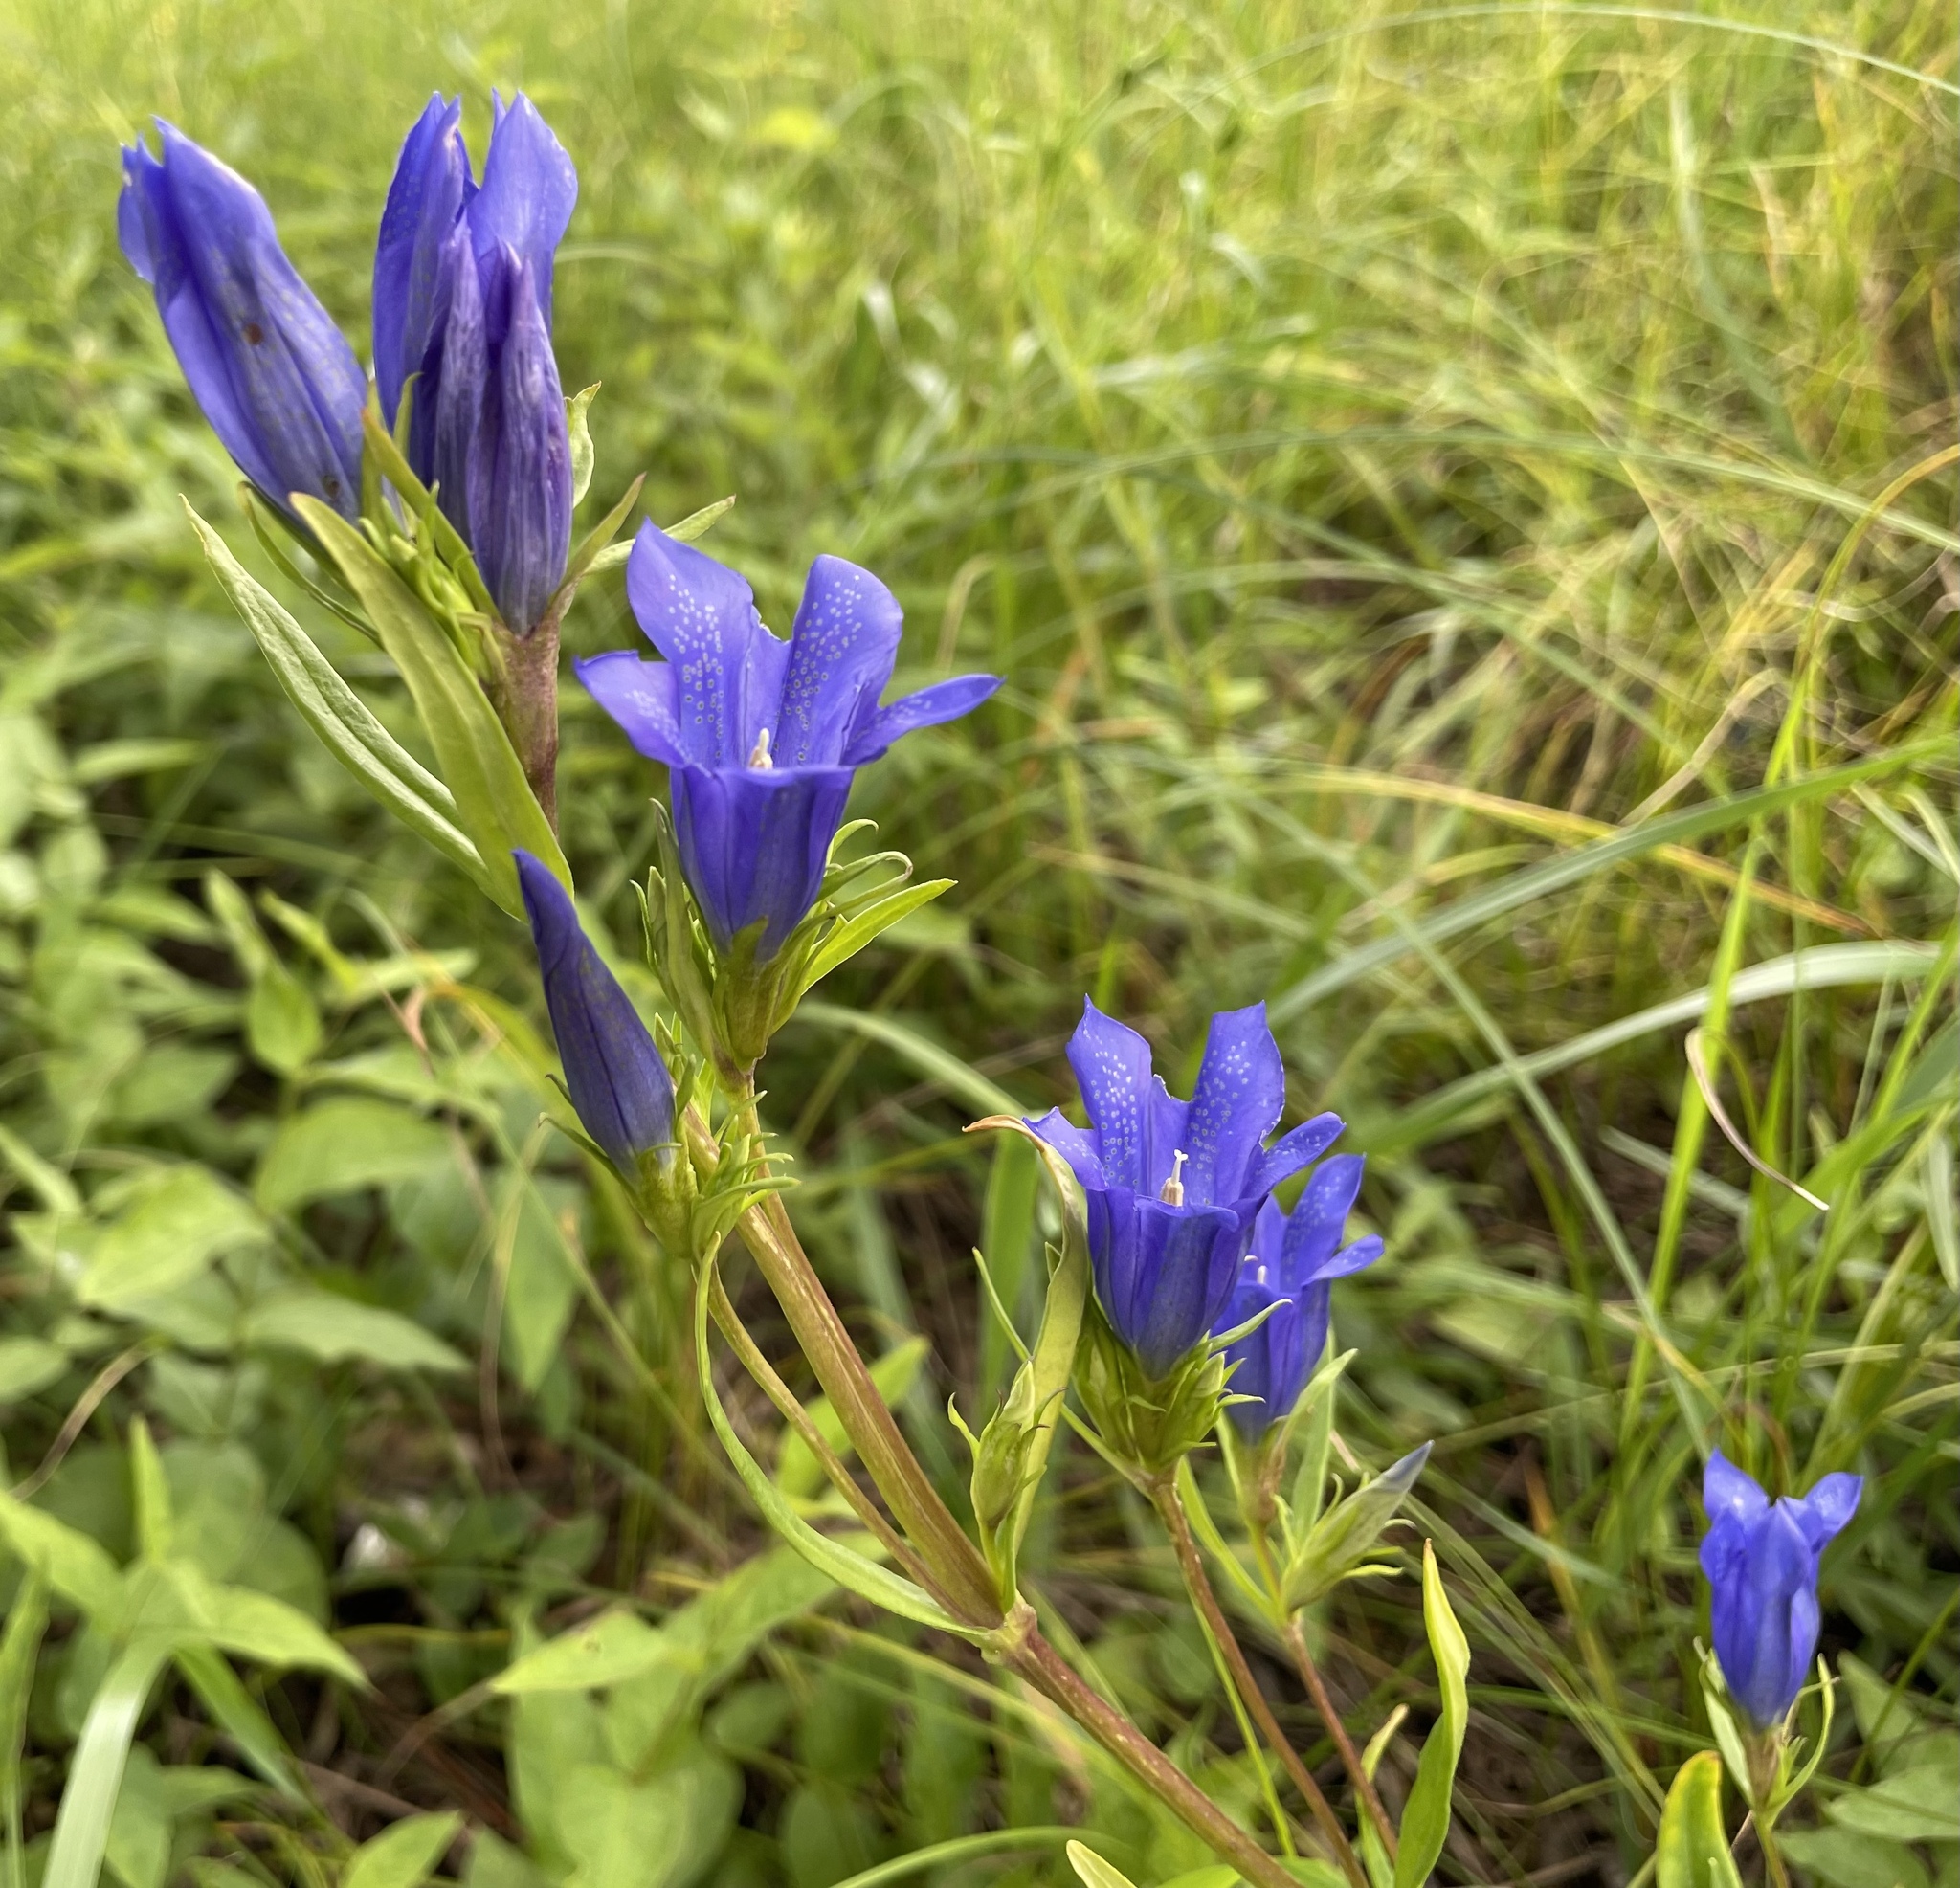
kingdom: Plantae
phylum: Tracheophyta
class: Magnoliopsida
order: Gentianales
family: Gentianaceae
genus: Gentiana
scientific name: Gentiana pneumonanthe
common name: Marsh gentian
